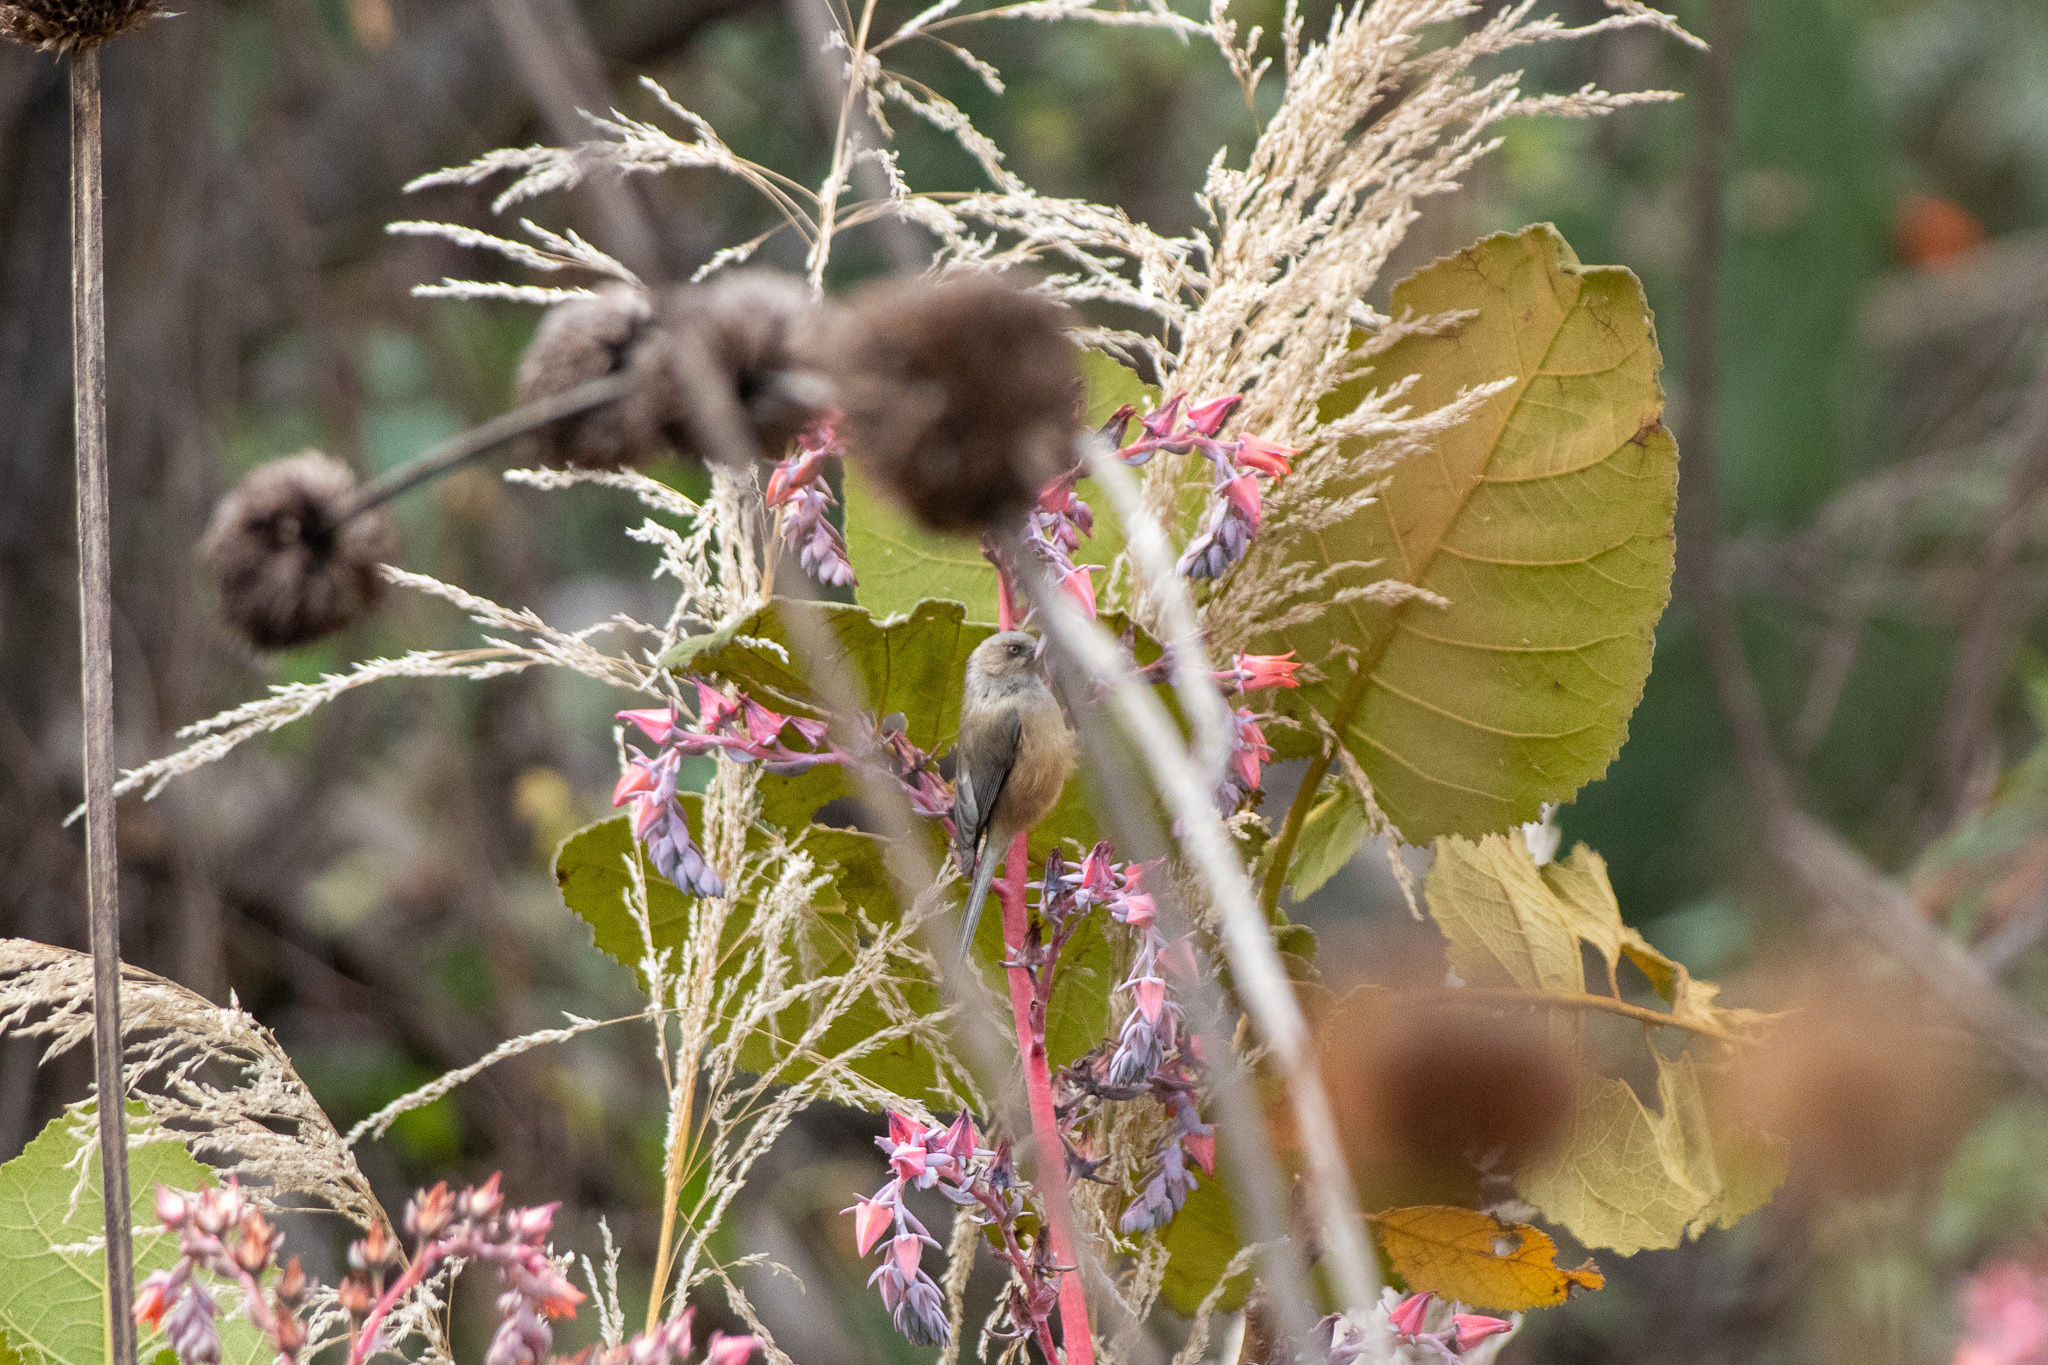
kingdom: Animalia
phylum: Chordata
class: Aves
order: Passeriformes
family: Aegithalidae
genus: Psaltriparus
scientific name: Psaltriparus minimus
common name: American bushtit
